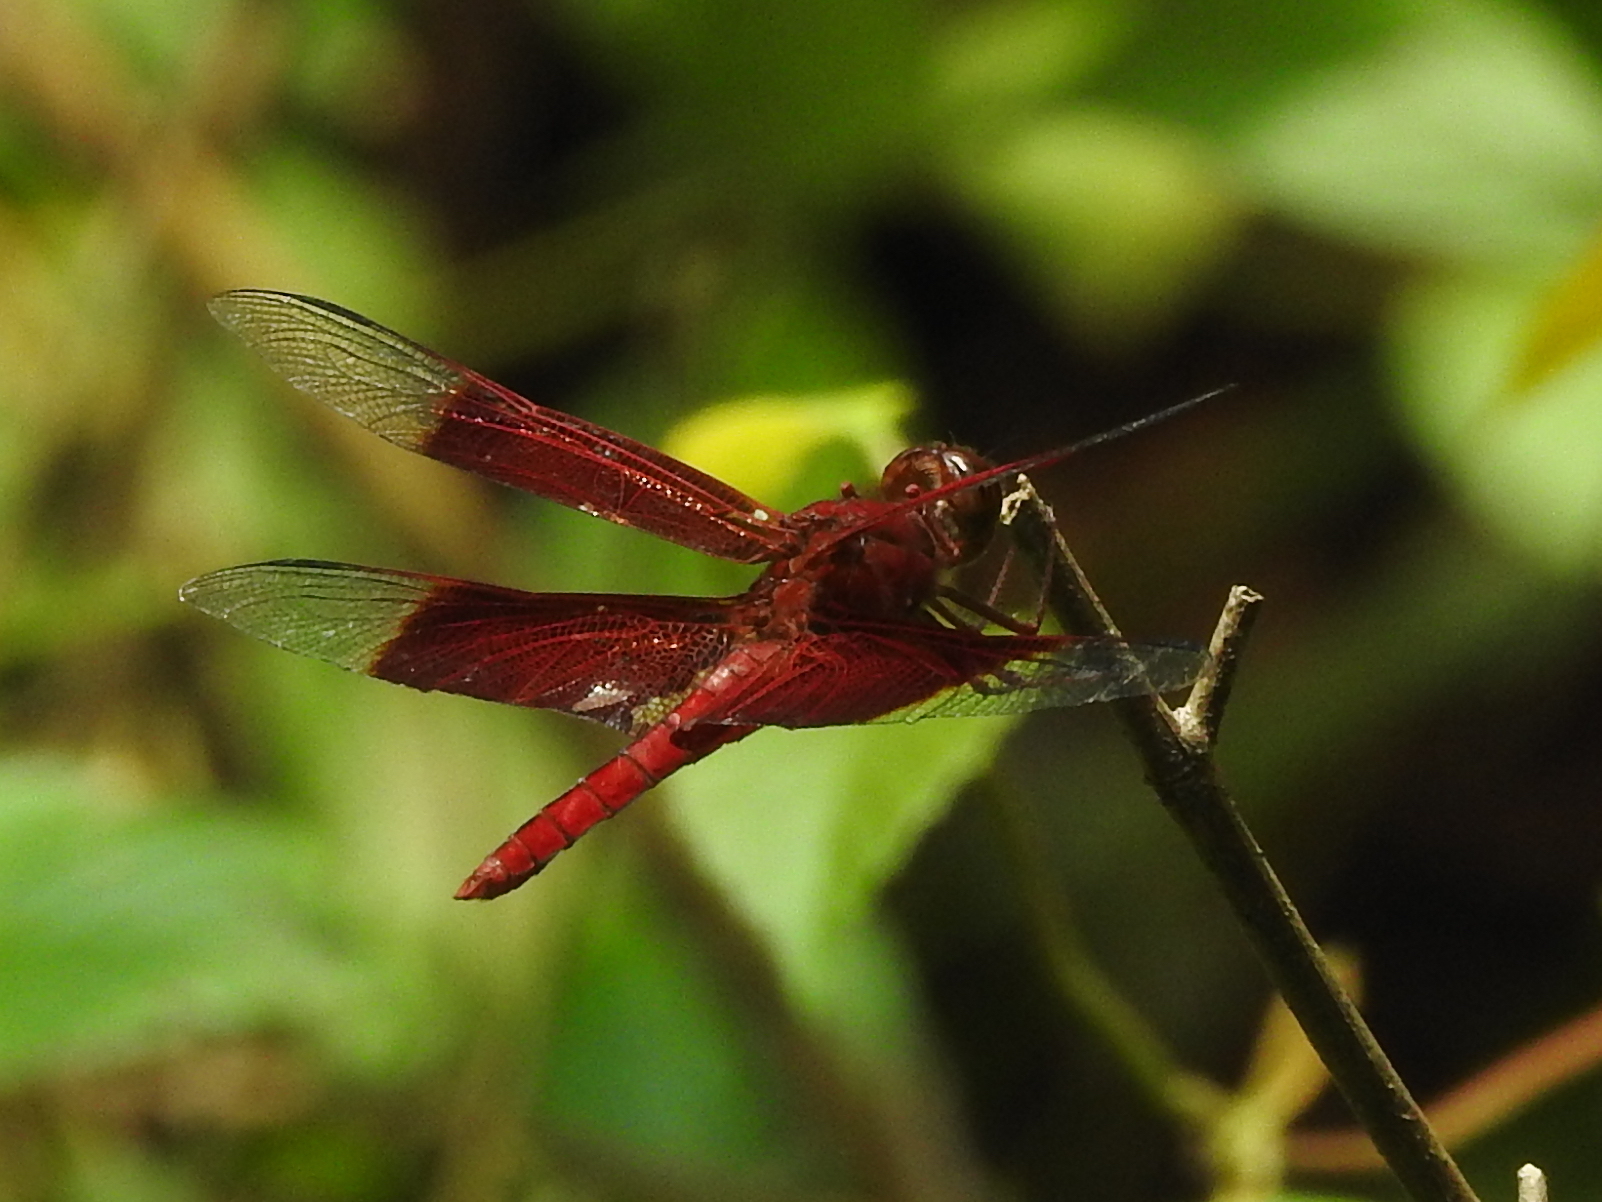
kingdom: Animalia
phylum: Arthropoda
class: Insecta
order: Odonata
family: Libellulidae
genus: Camacinia
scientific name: Camacinia gigantea
